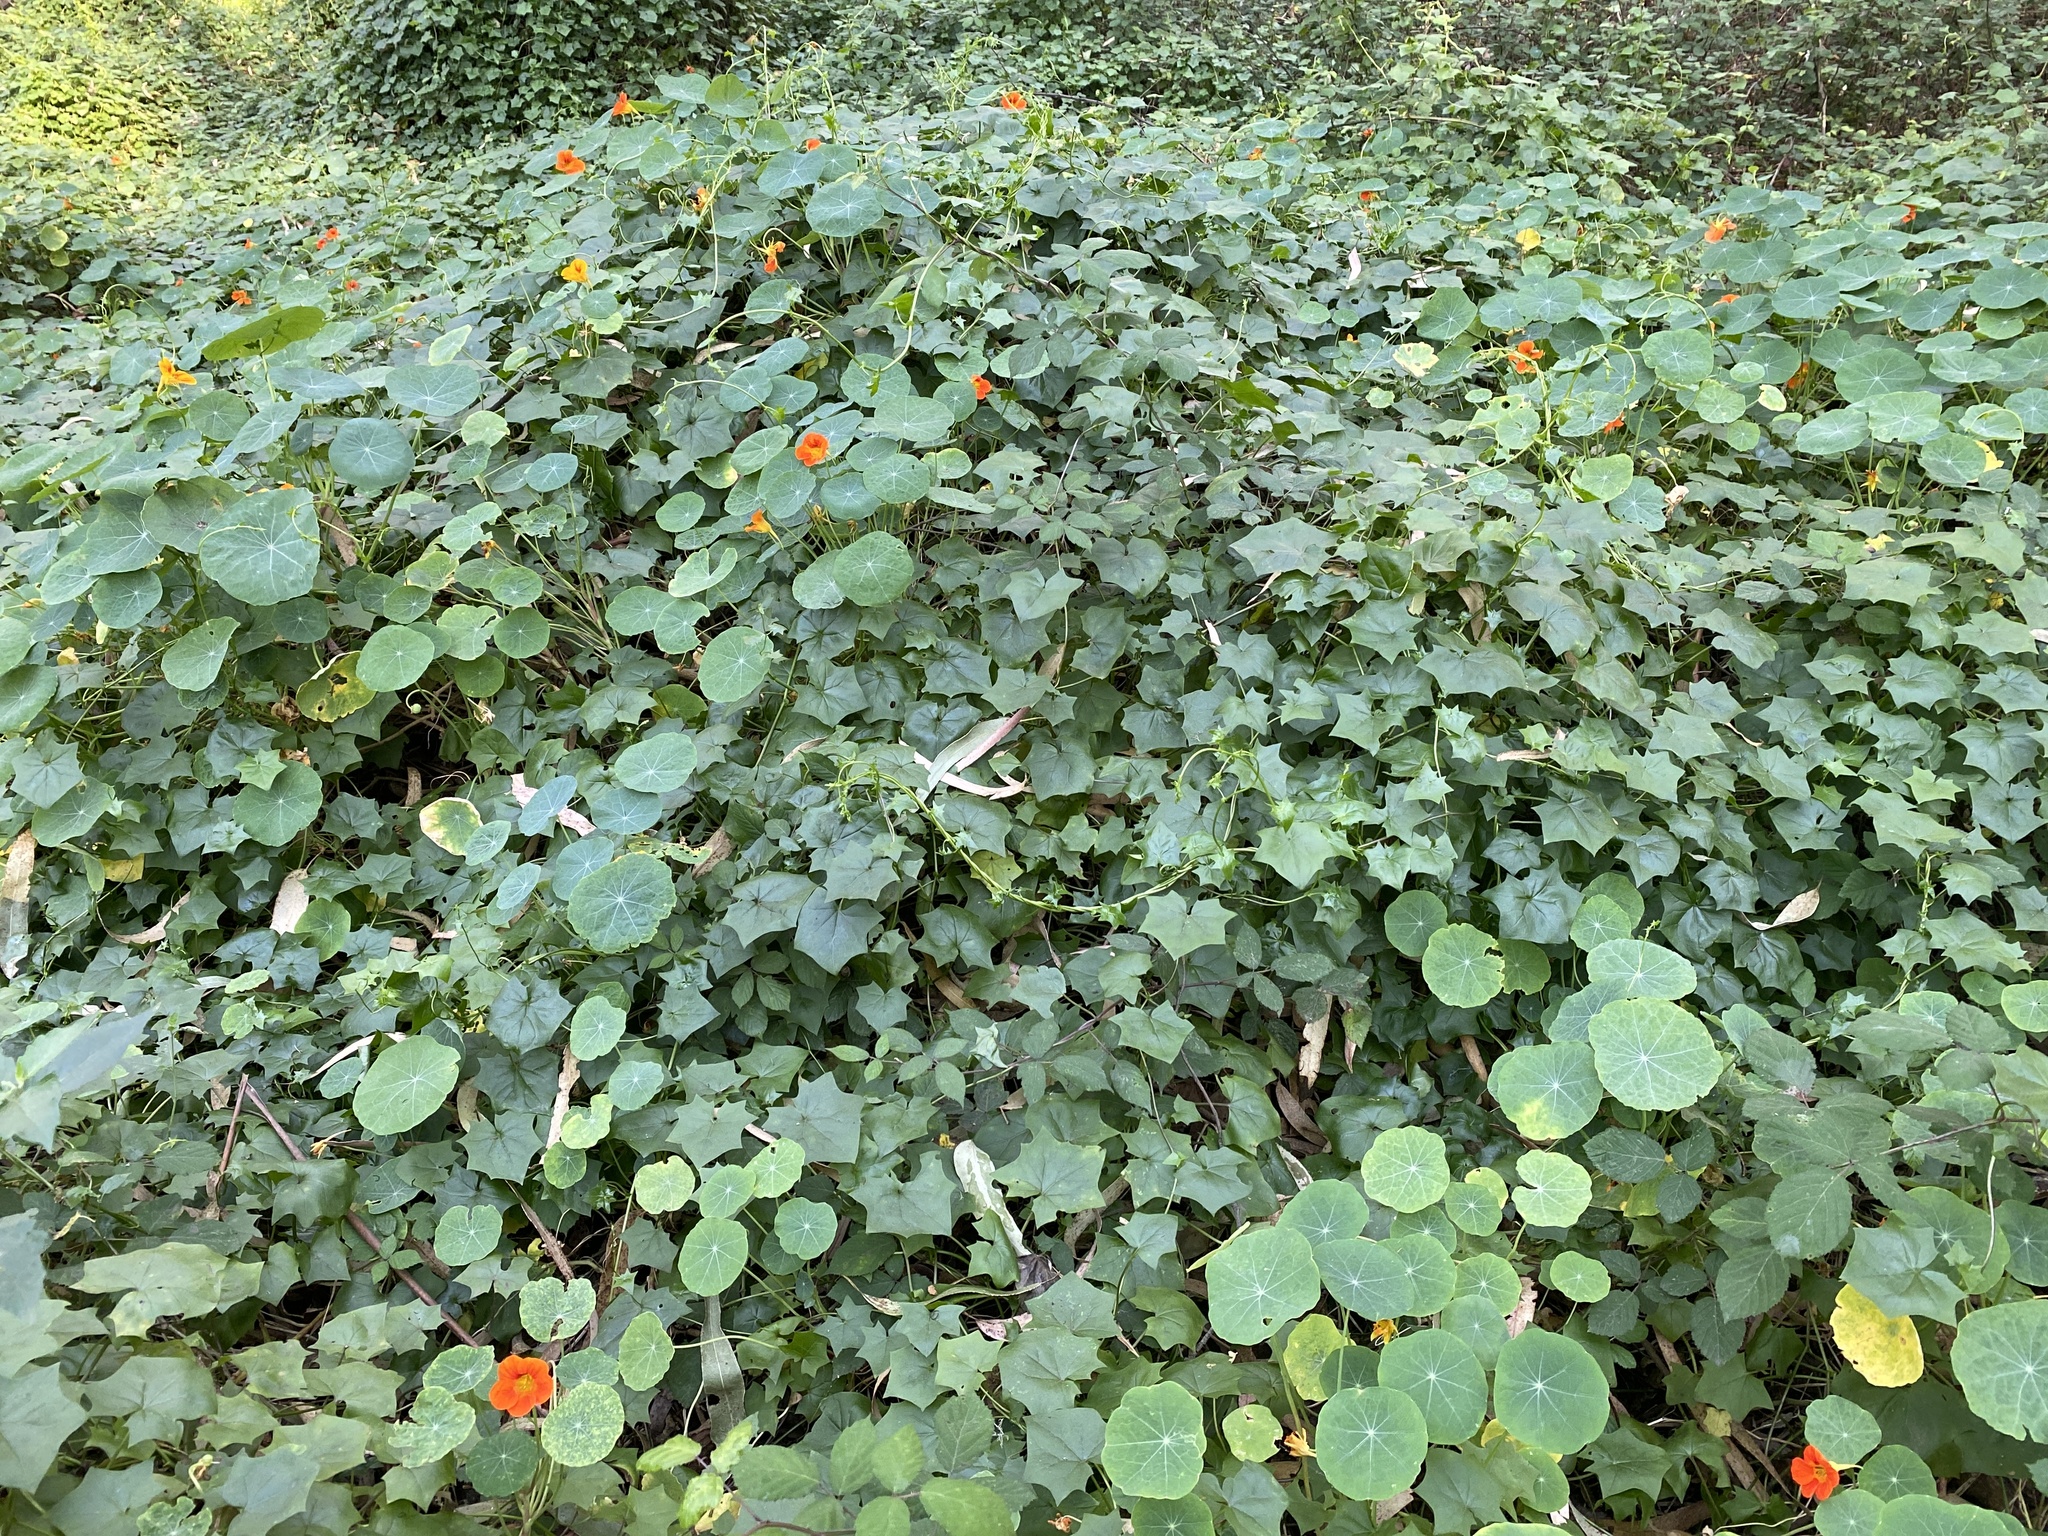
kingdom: Plantae
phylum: Tracheophyta
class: Magnoliopsida
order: Brassicales
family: Tropaeolaceae
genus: Tropaeolum
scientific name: Tropaeolum majus
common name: Nasturtium
